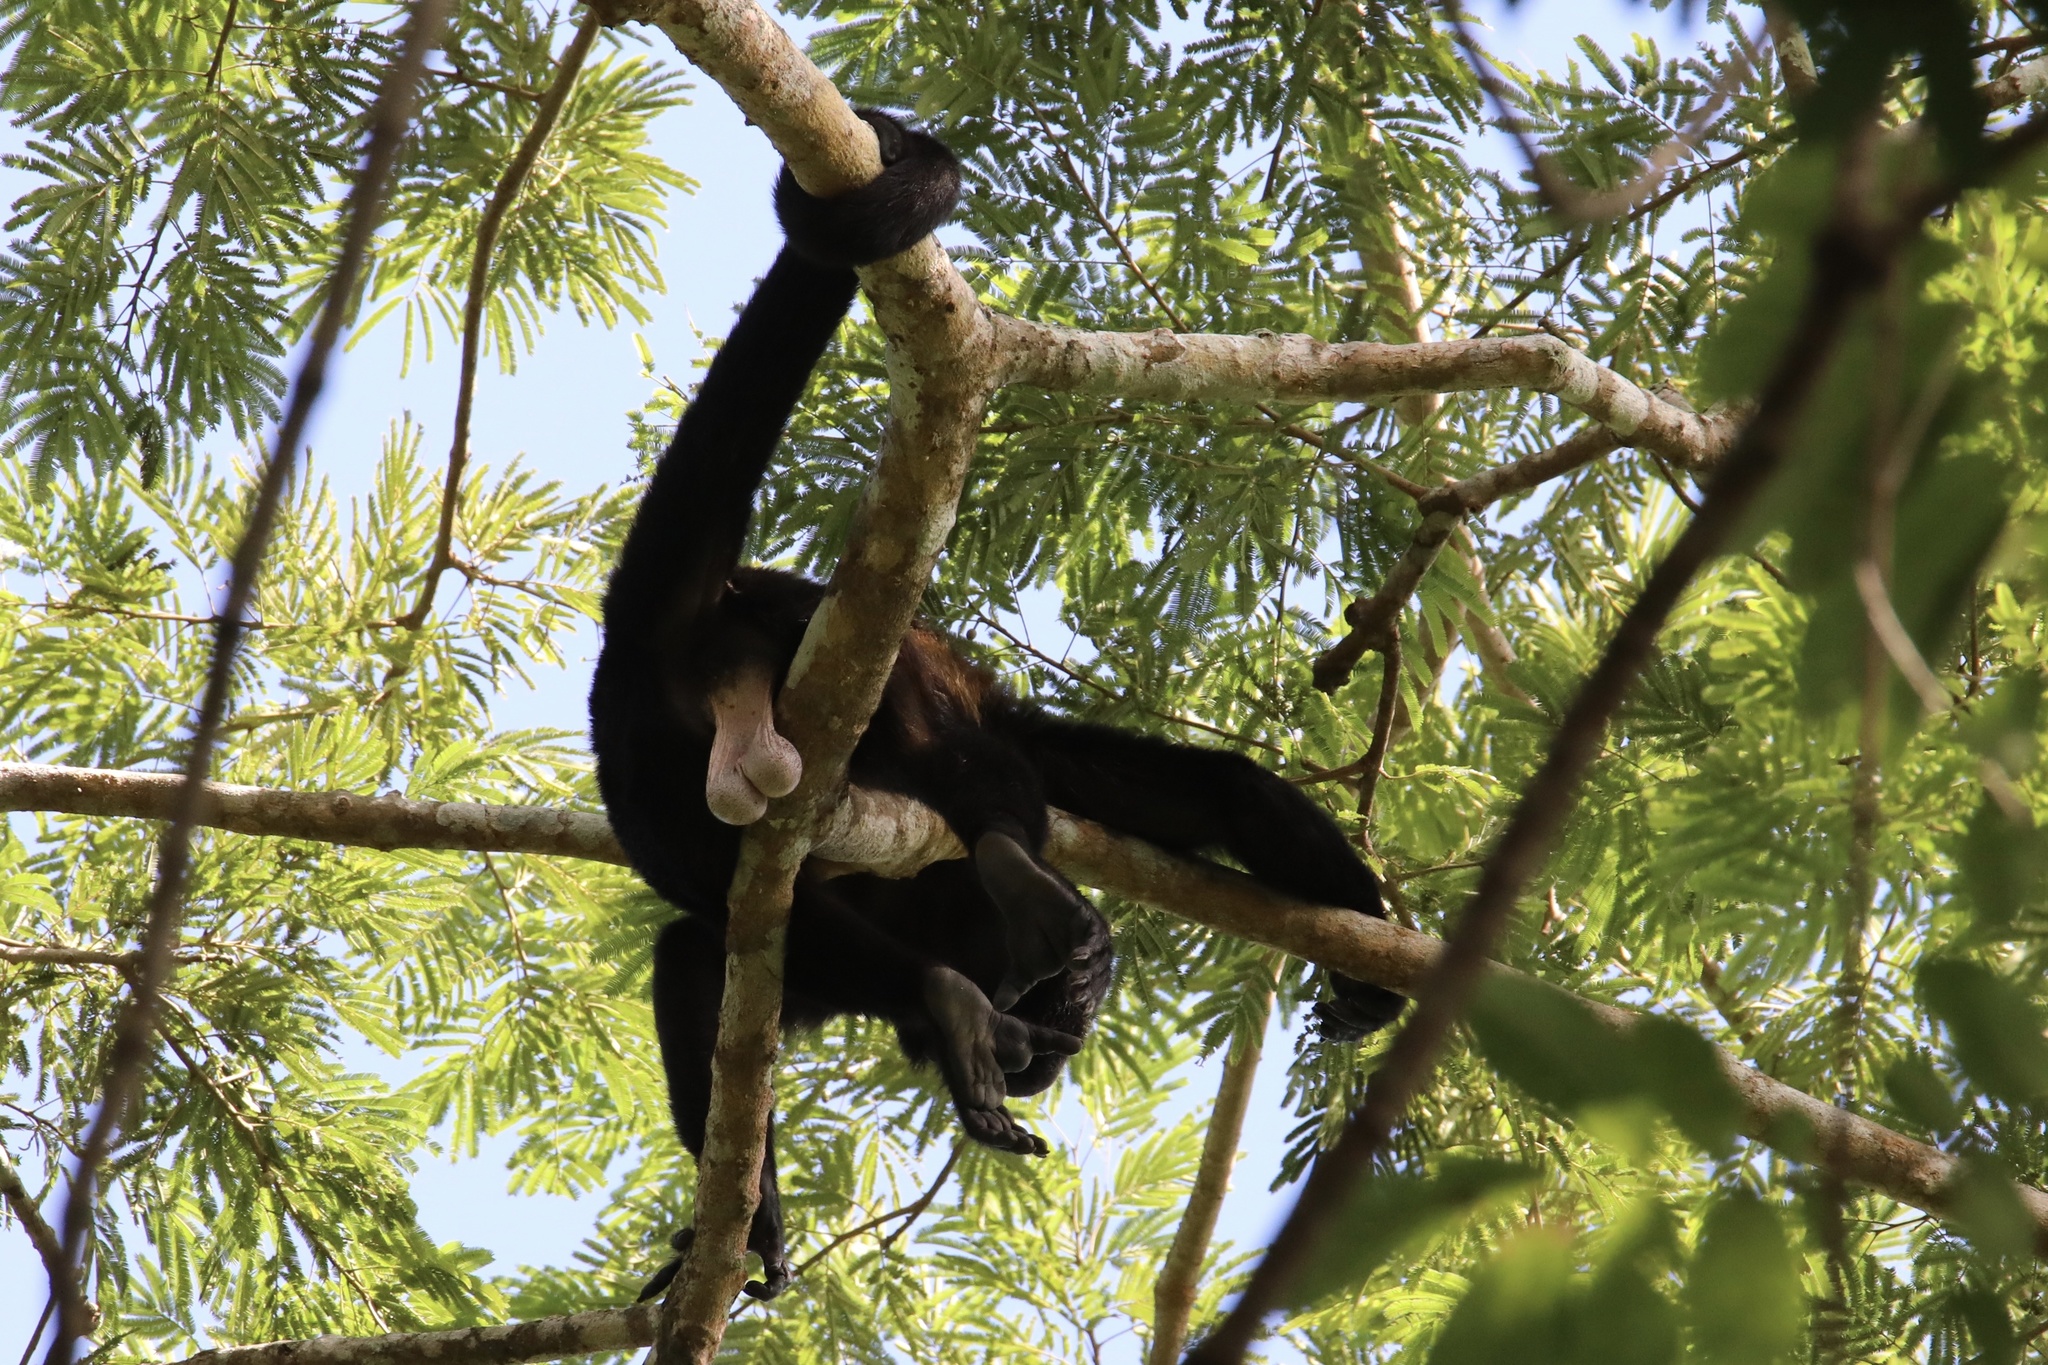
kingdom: Animalia
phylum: Chordata
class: Mammalia
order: Primates
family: Atelidae
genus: Alouatta
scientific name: Alouatta palliata
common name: Mantled howler
